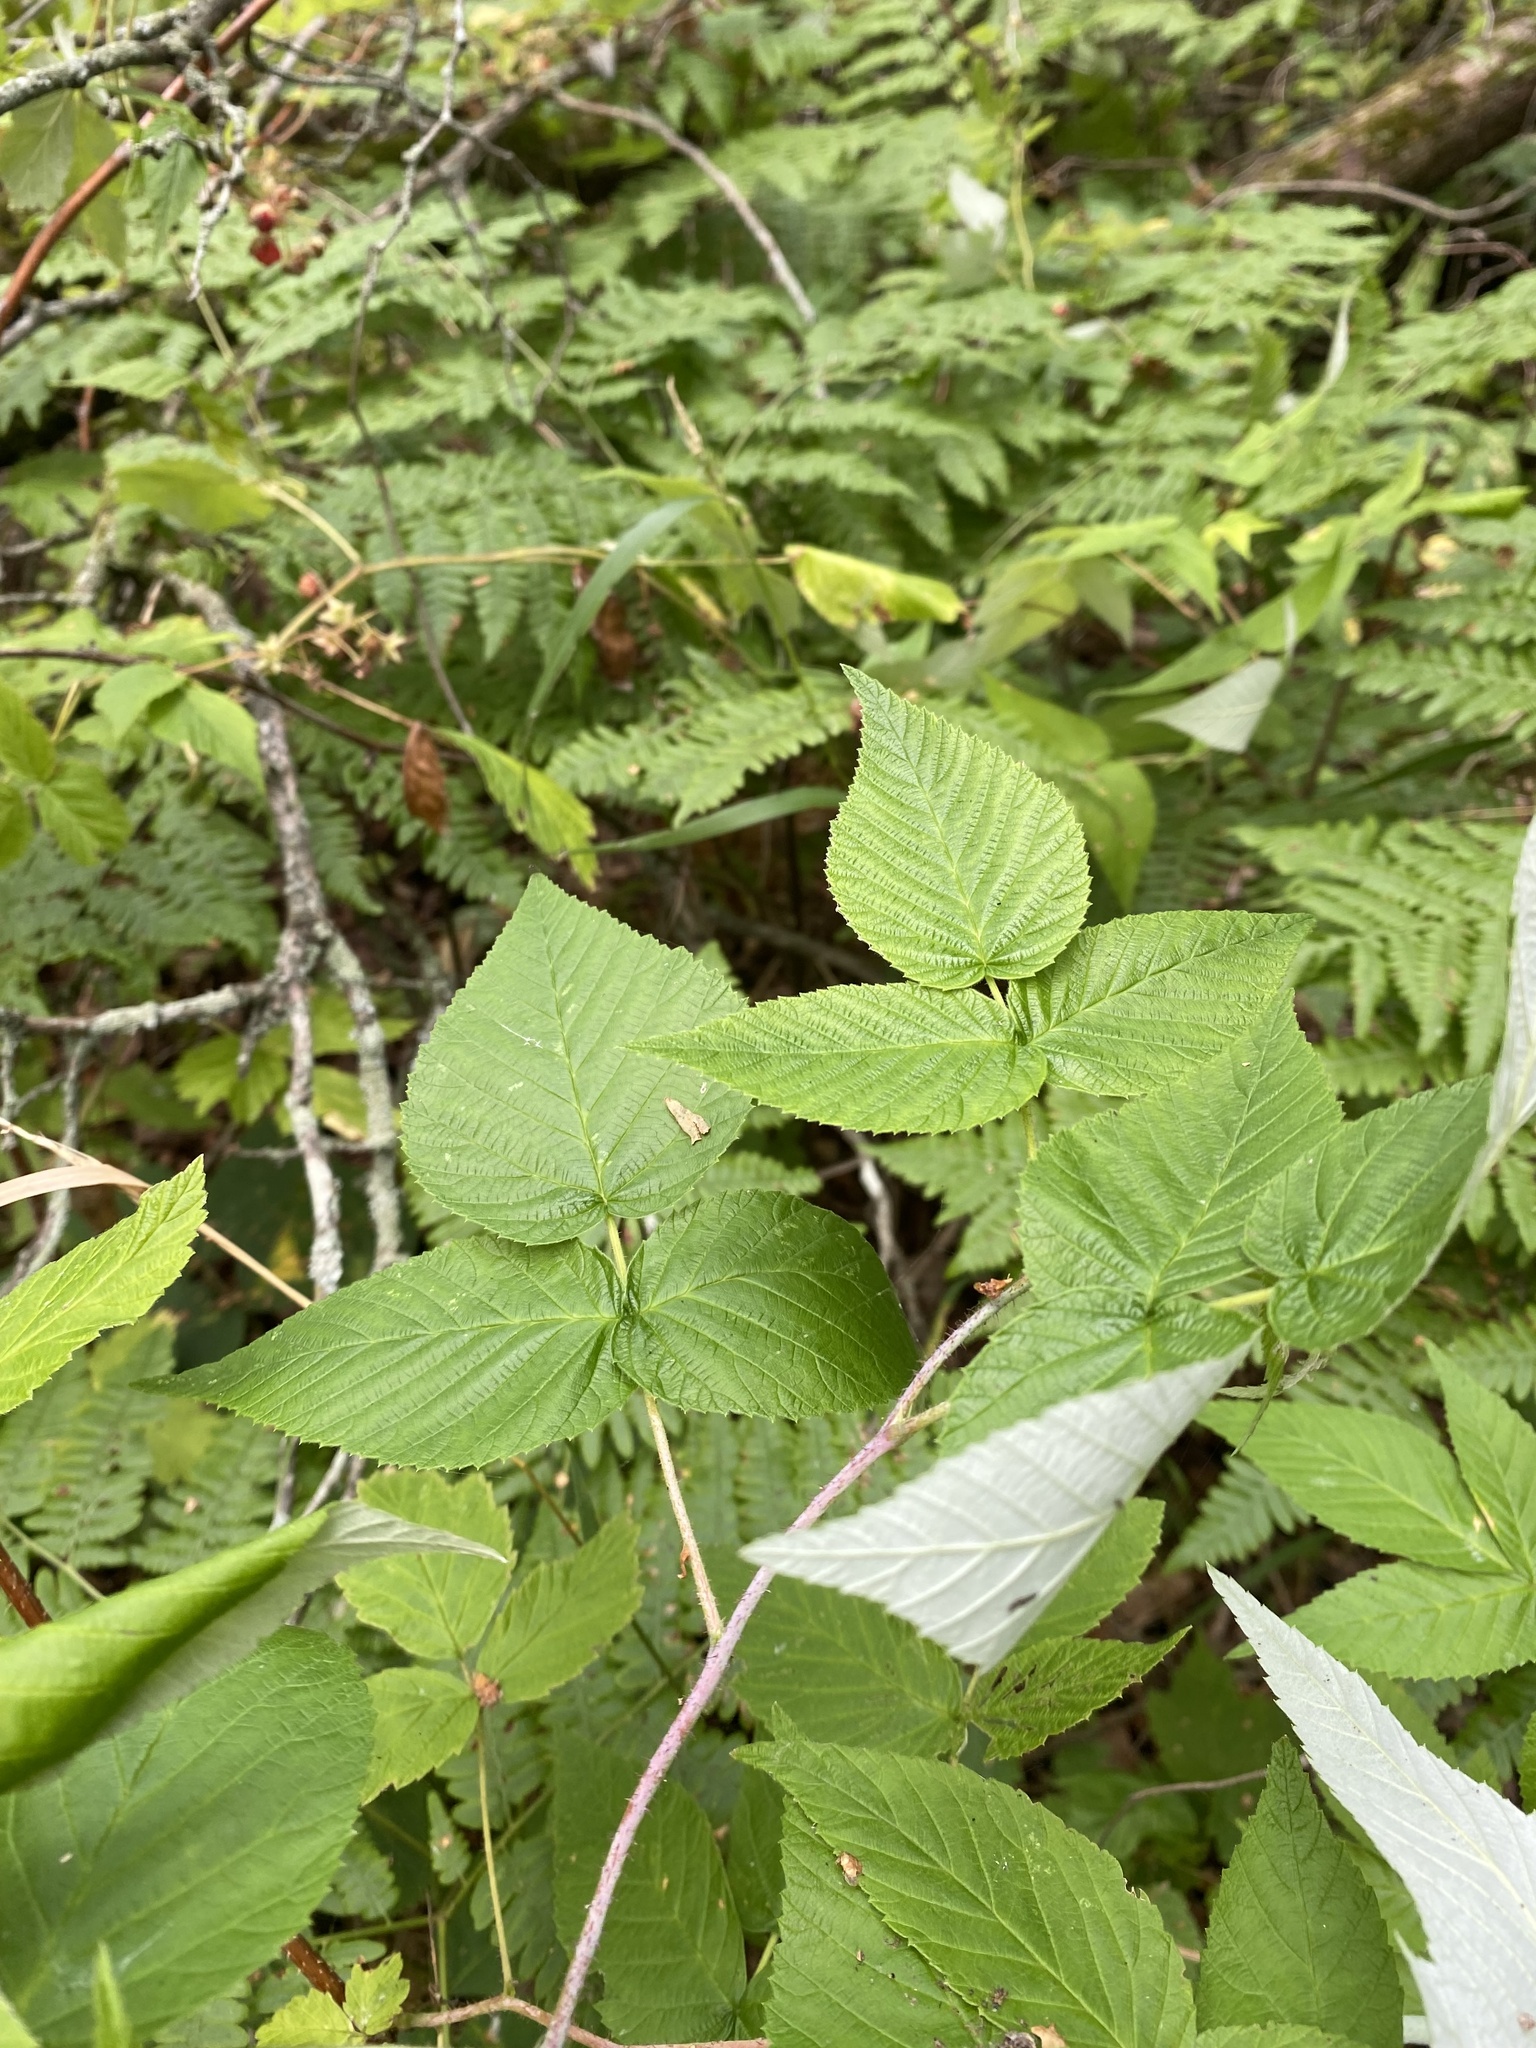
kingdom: Plantae
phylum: Tracheophyta
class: Magnoliopsida
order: Rosales
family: Rosaceae
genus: Rubus
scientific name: Rubus idaeus
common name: Raspberry
